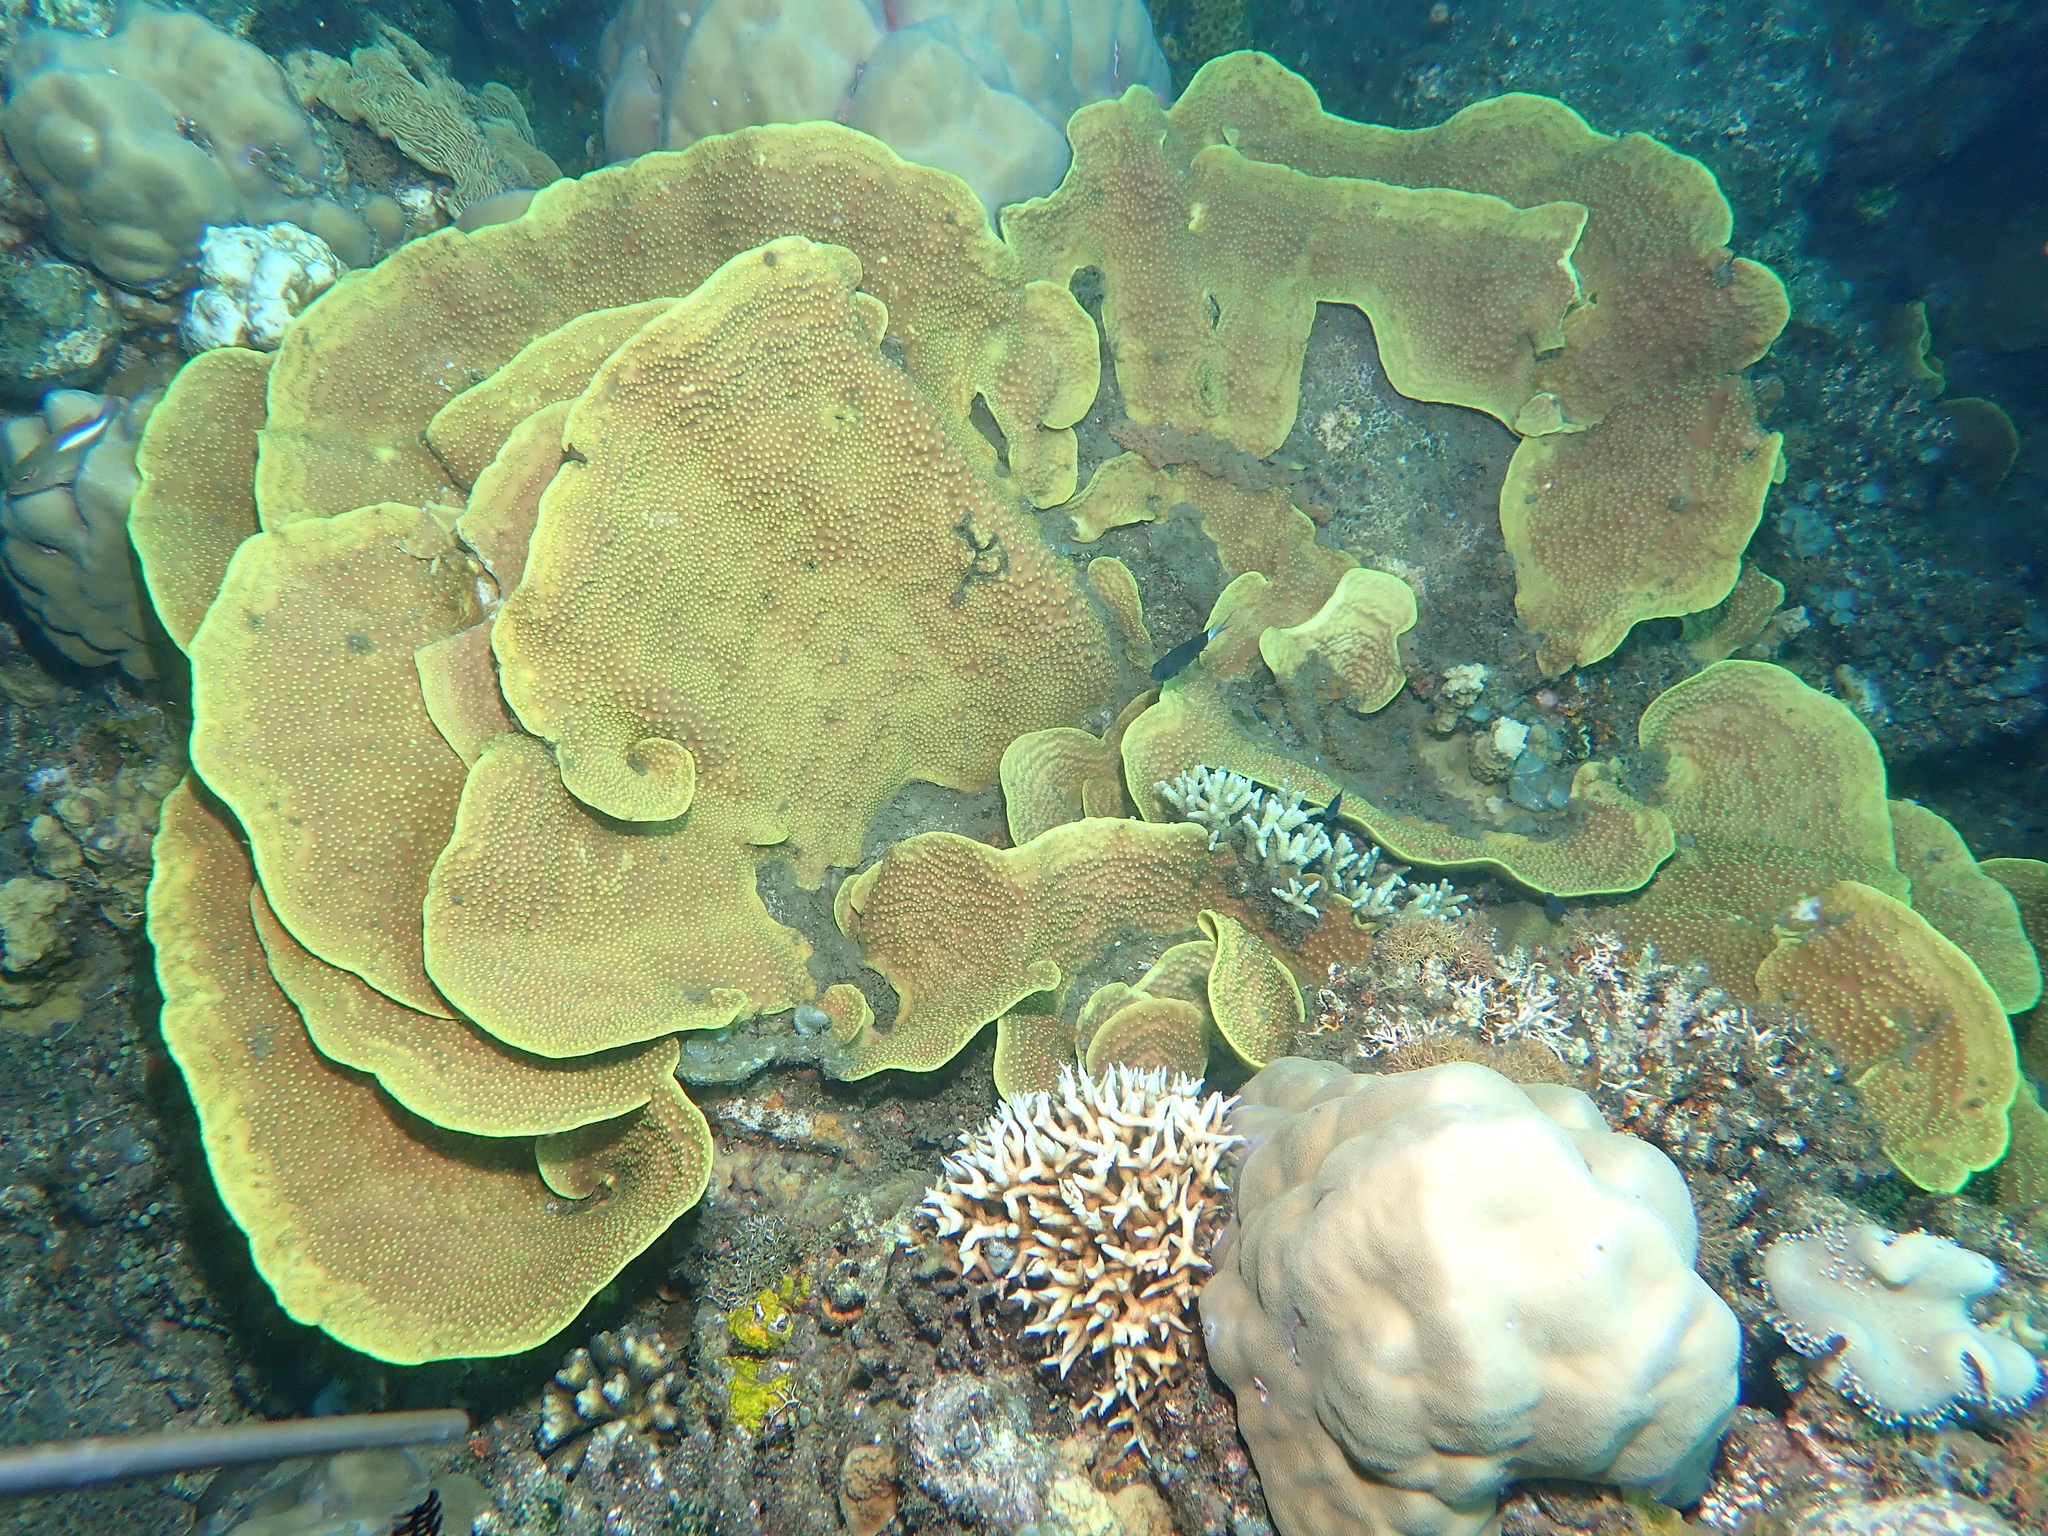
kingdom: Animalia
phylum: Cnidaria
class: Anthozoa
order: Scleractinia
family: Dendrophylliidae
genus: Turbinaria
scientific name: Turbinaria reniformis
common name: Disc coral
